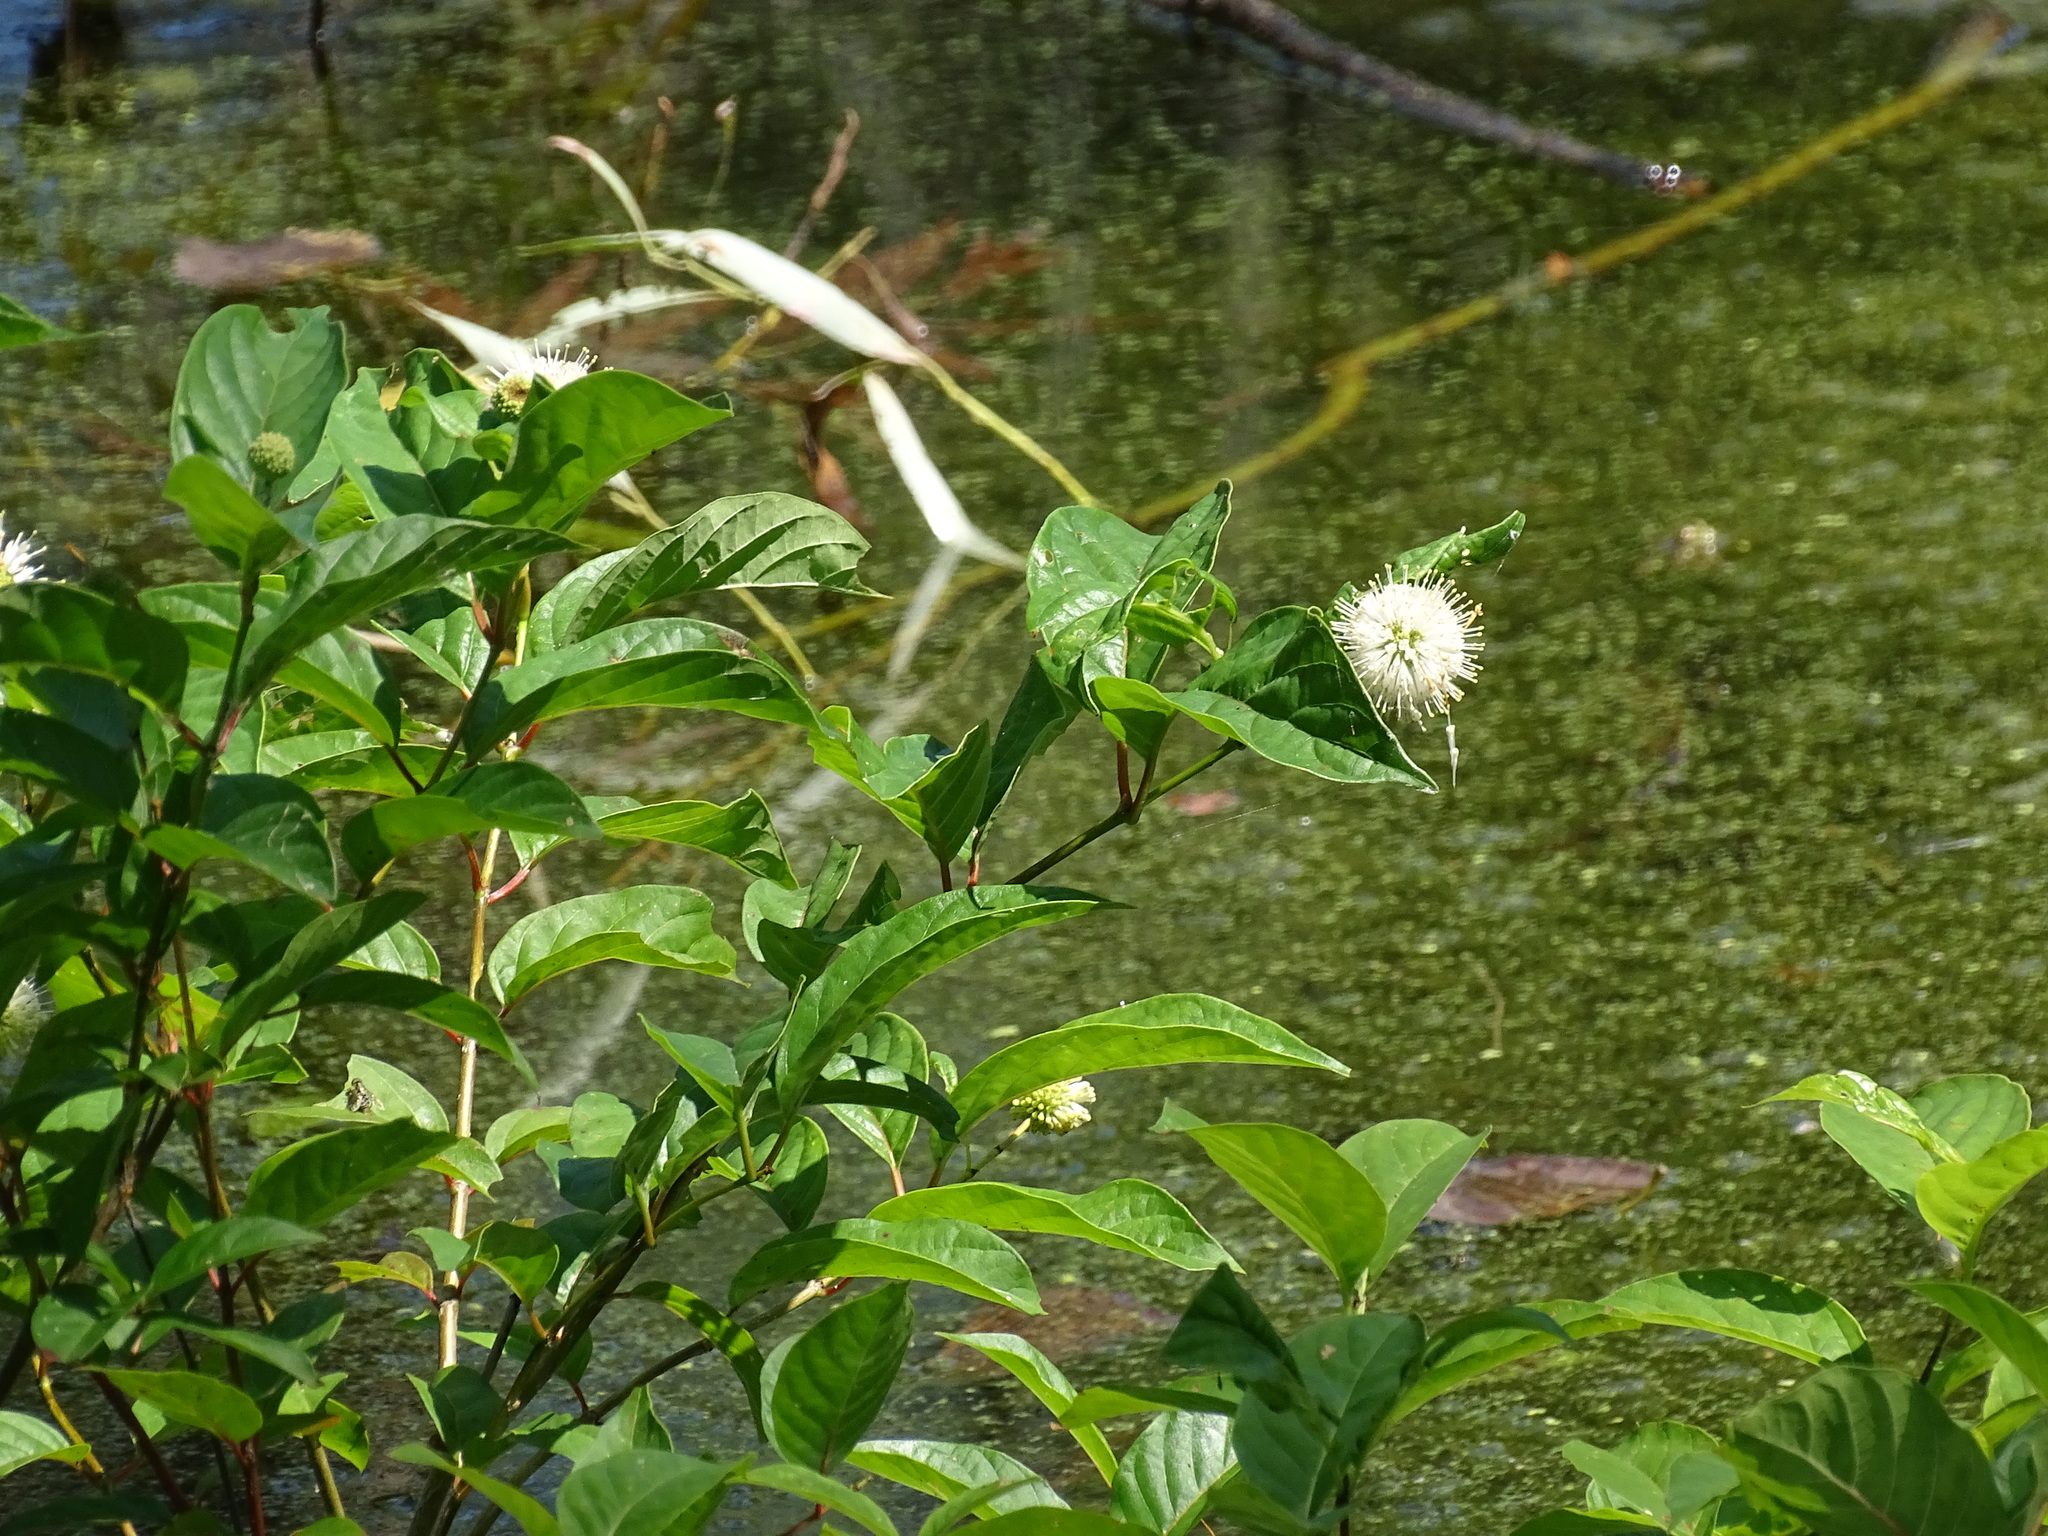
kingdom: Plantae
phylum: Tracheophyta
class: Magnoliopsida
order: Gentianales
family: Rubiaceae
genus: Cephalanthus
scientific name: Cephalanthus occidentalis
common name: Button-willow
